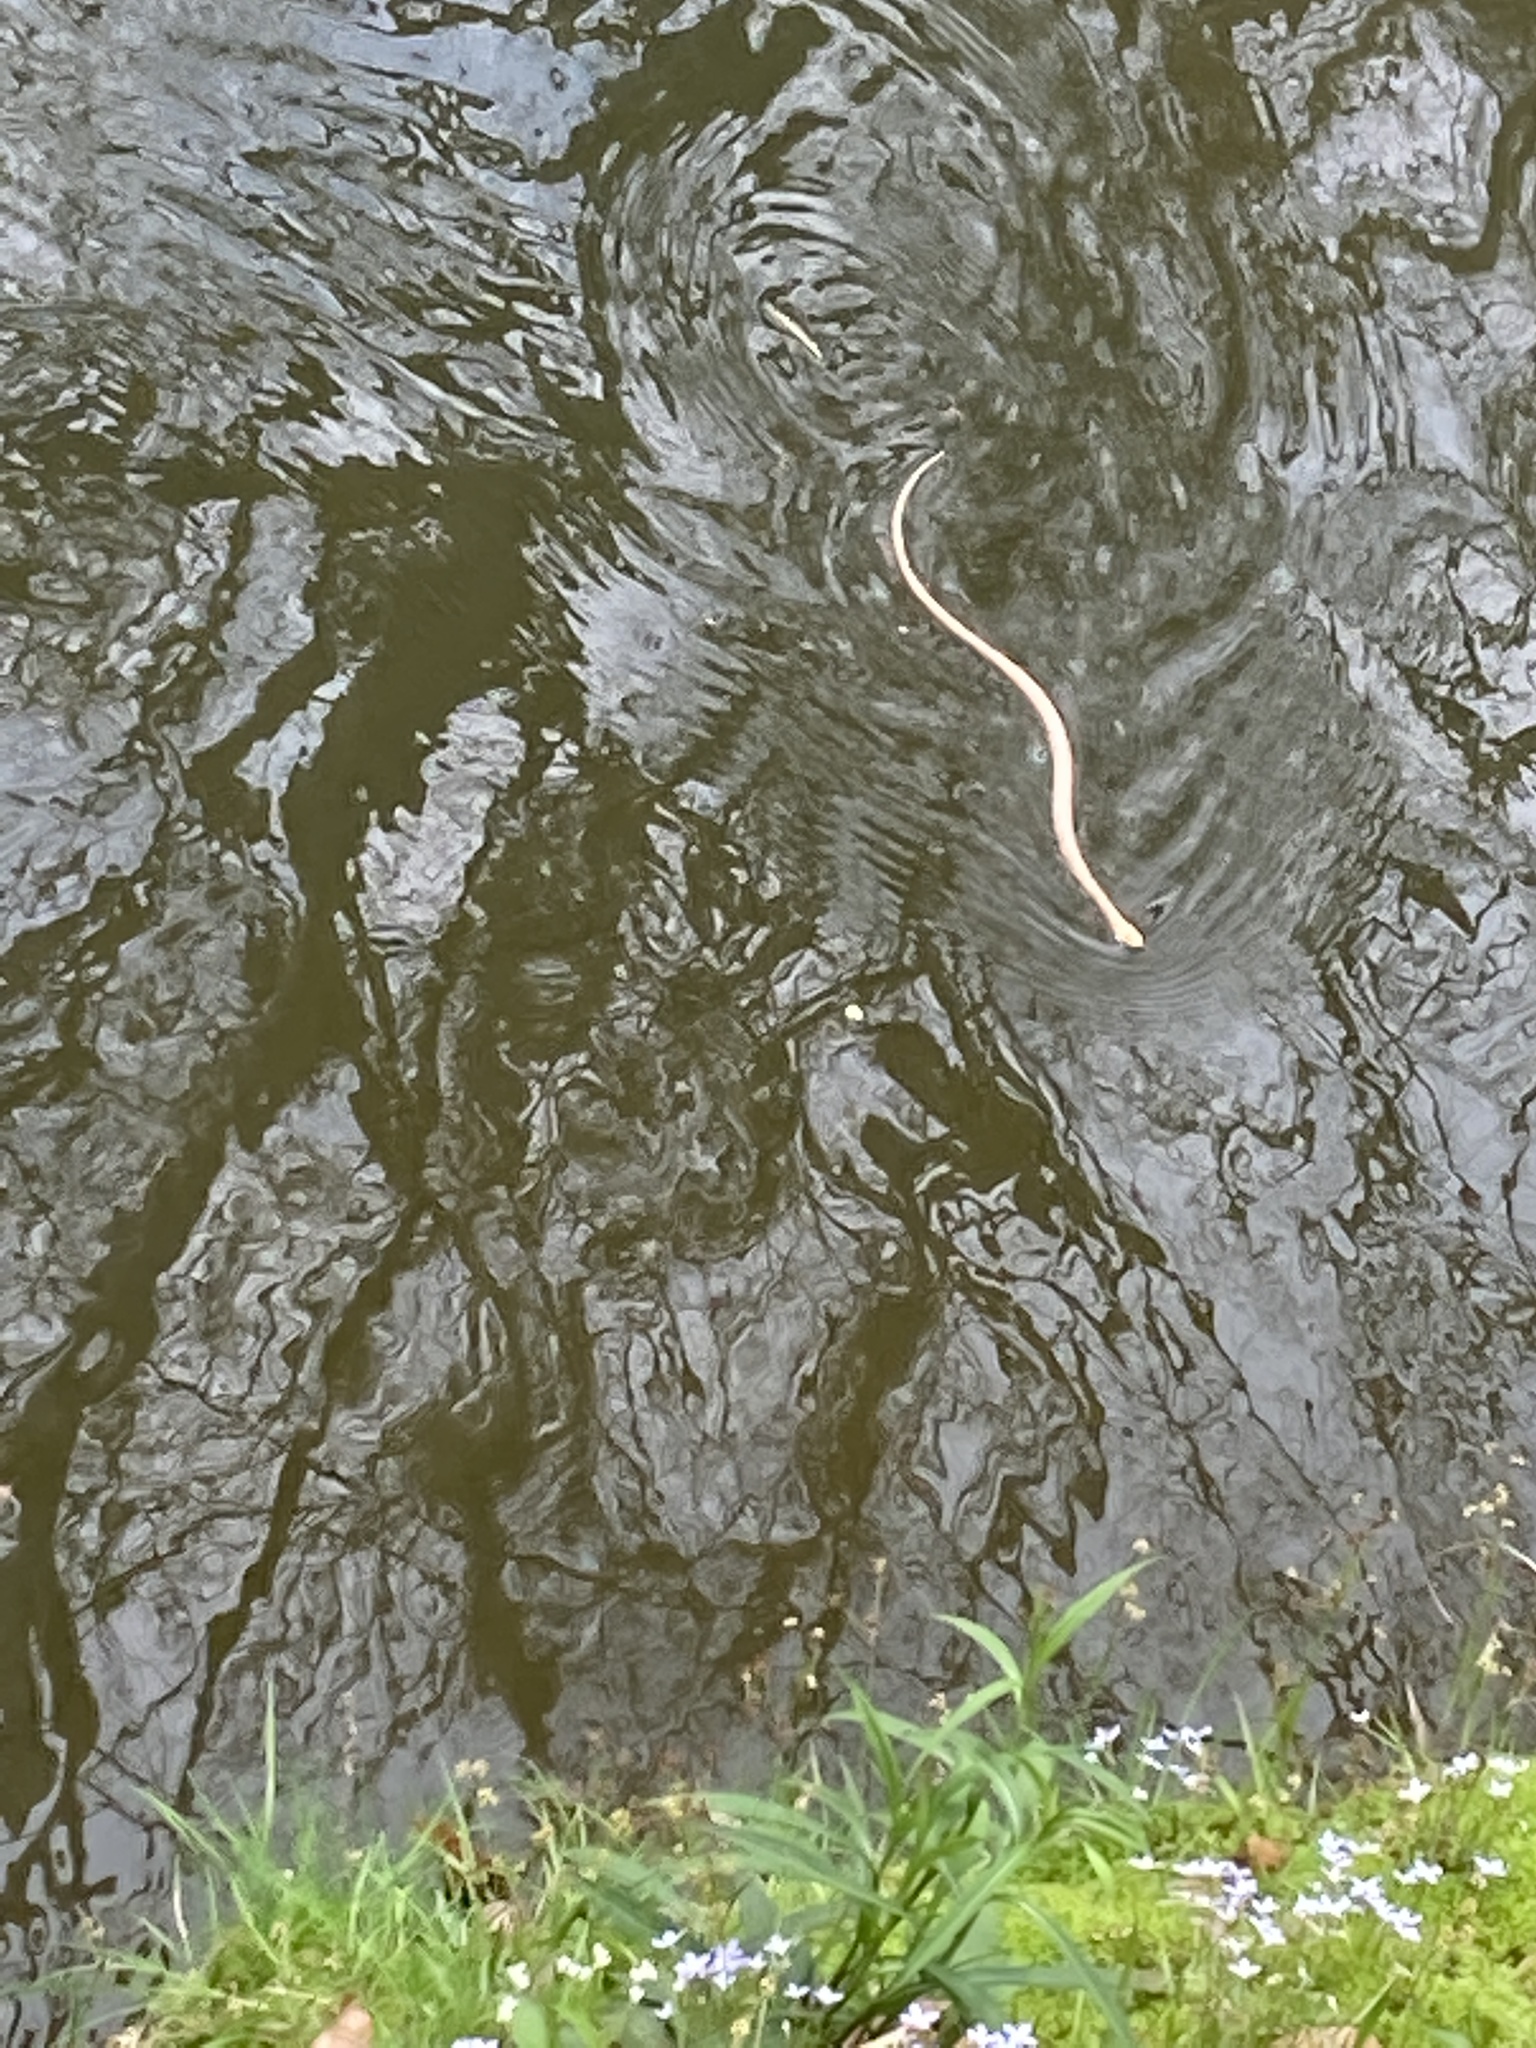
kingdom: Animalia
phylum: Chordata
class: Squamata
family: Colubridae
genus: Nerodia
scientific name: Nerodia sipedon
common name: Northern water snake
